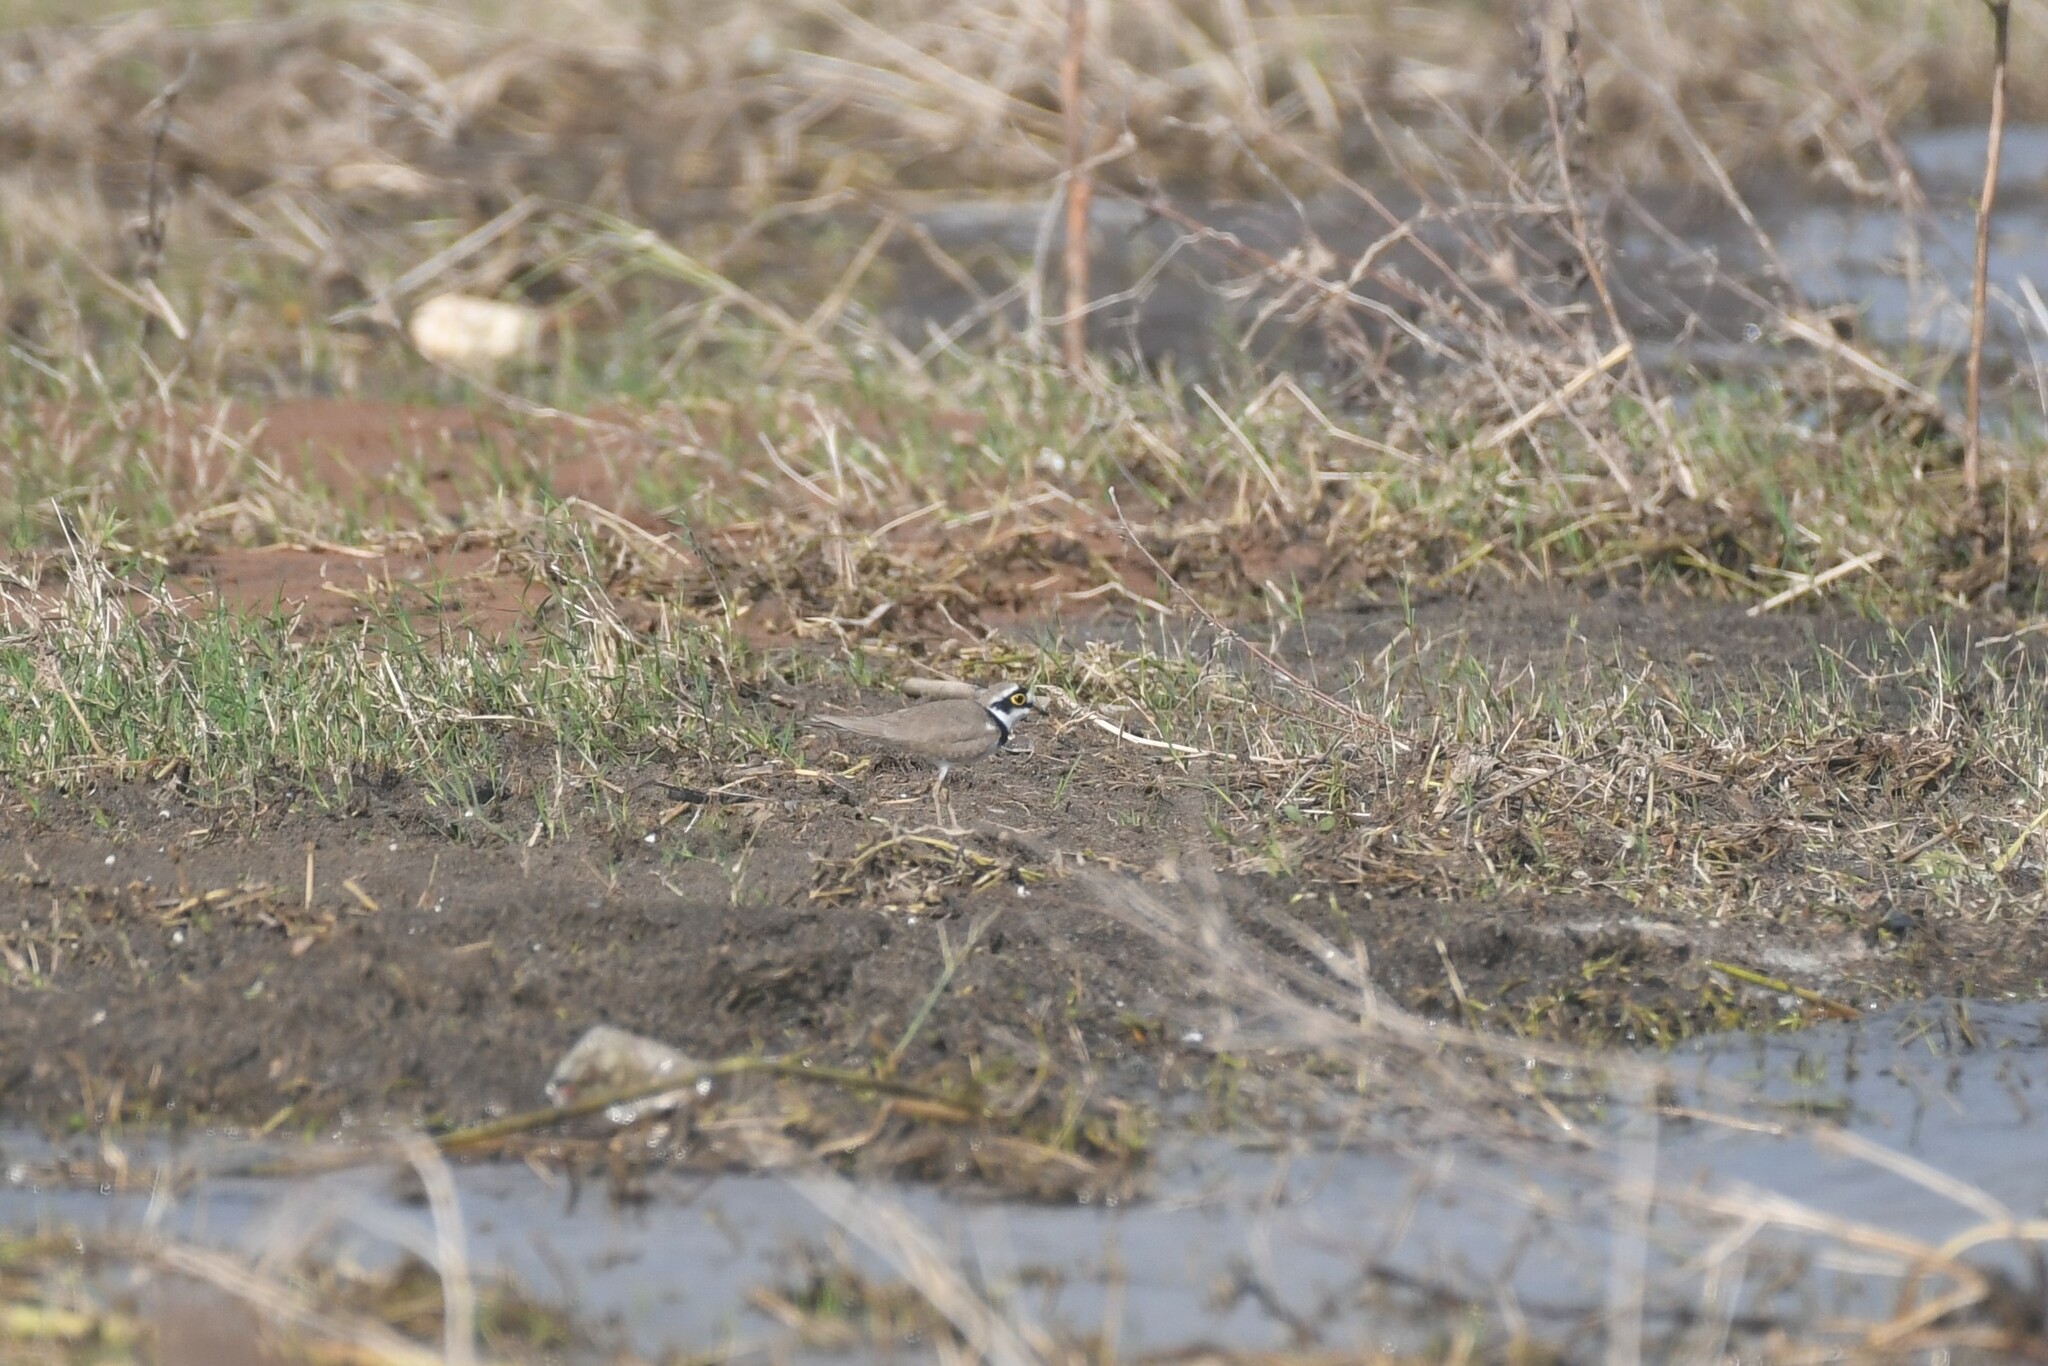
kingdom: Animalia
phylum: Chordata
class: Aves
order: Charadriiformes
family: Charadriidae
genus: Charadrius
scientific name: Charadrius dubius
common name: Little ringed plover
